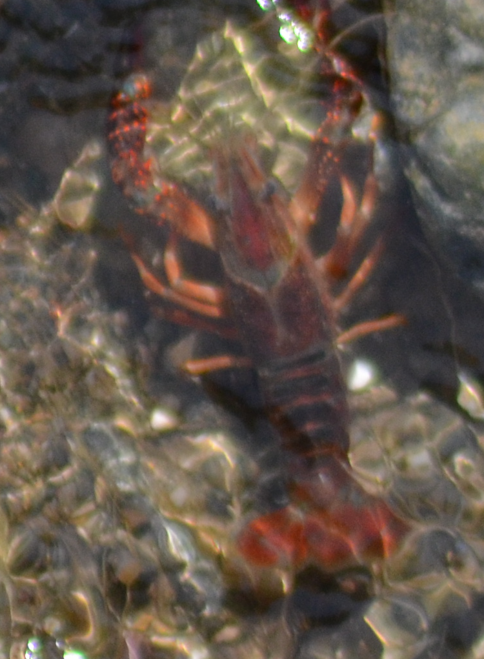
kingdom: Animalia
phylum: Arthropoda
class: Malacostraca
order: Decapoda
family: Cambaridae
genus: Procambarus
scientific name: Procambarus clarkii
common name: Red swamp crayfish
